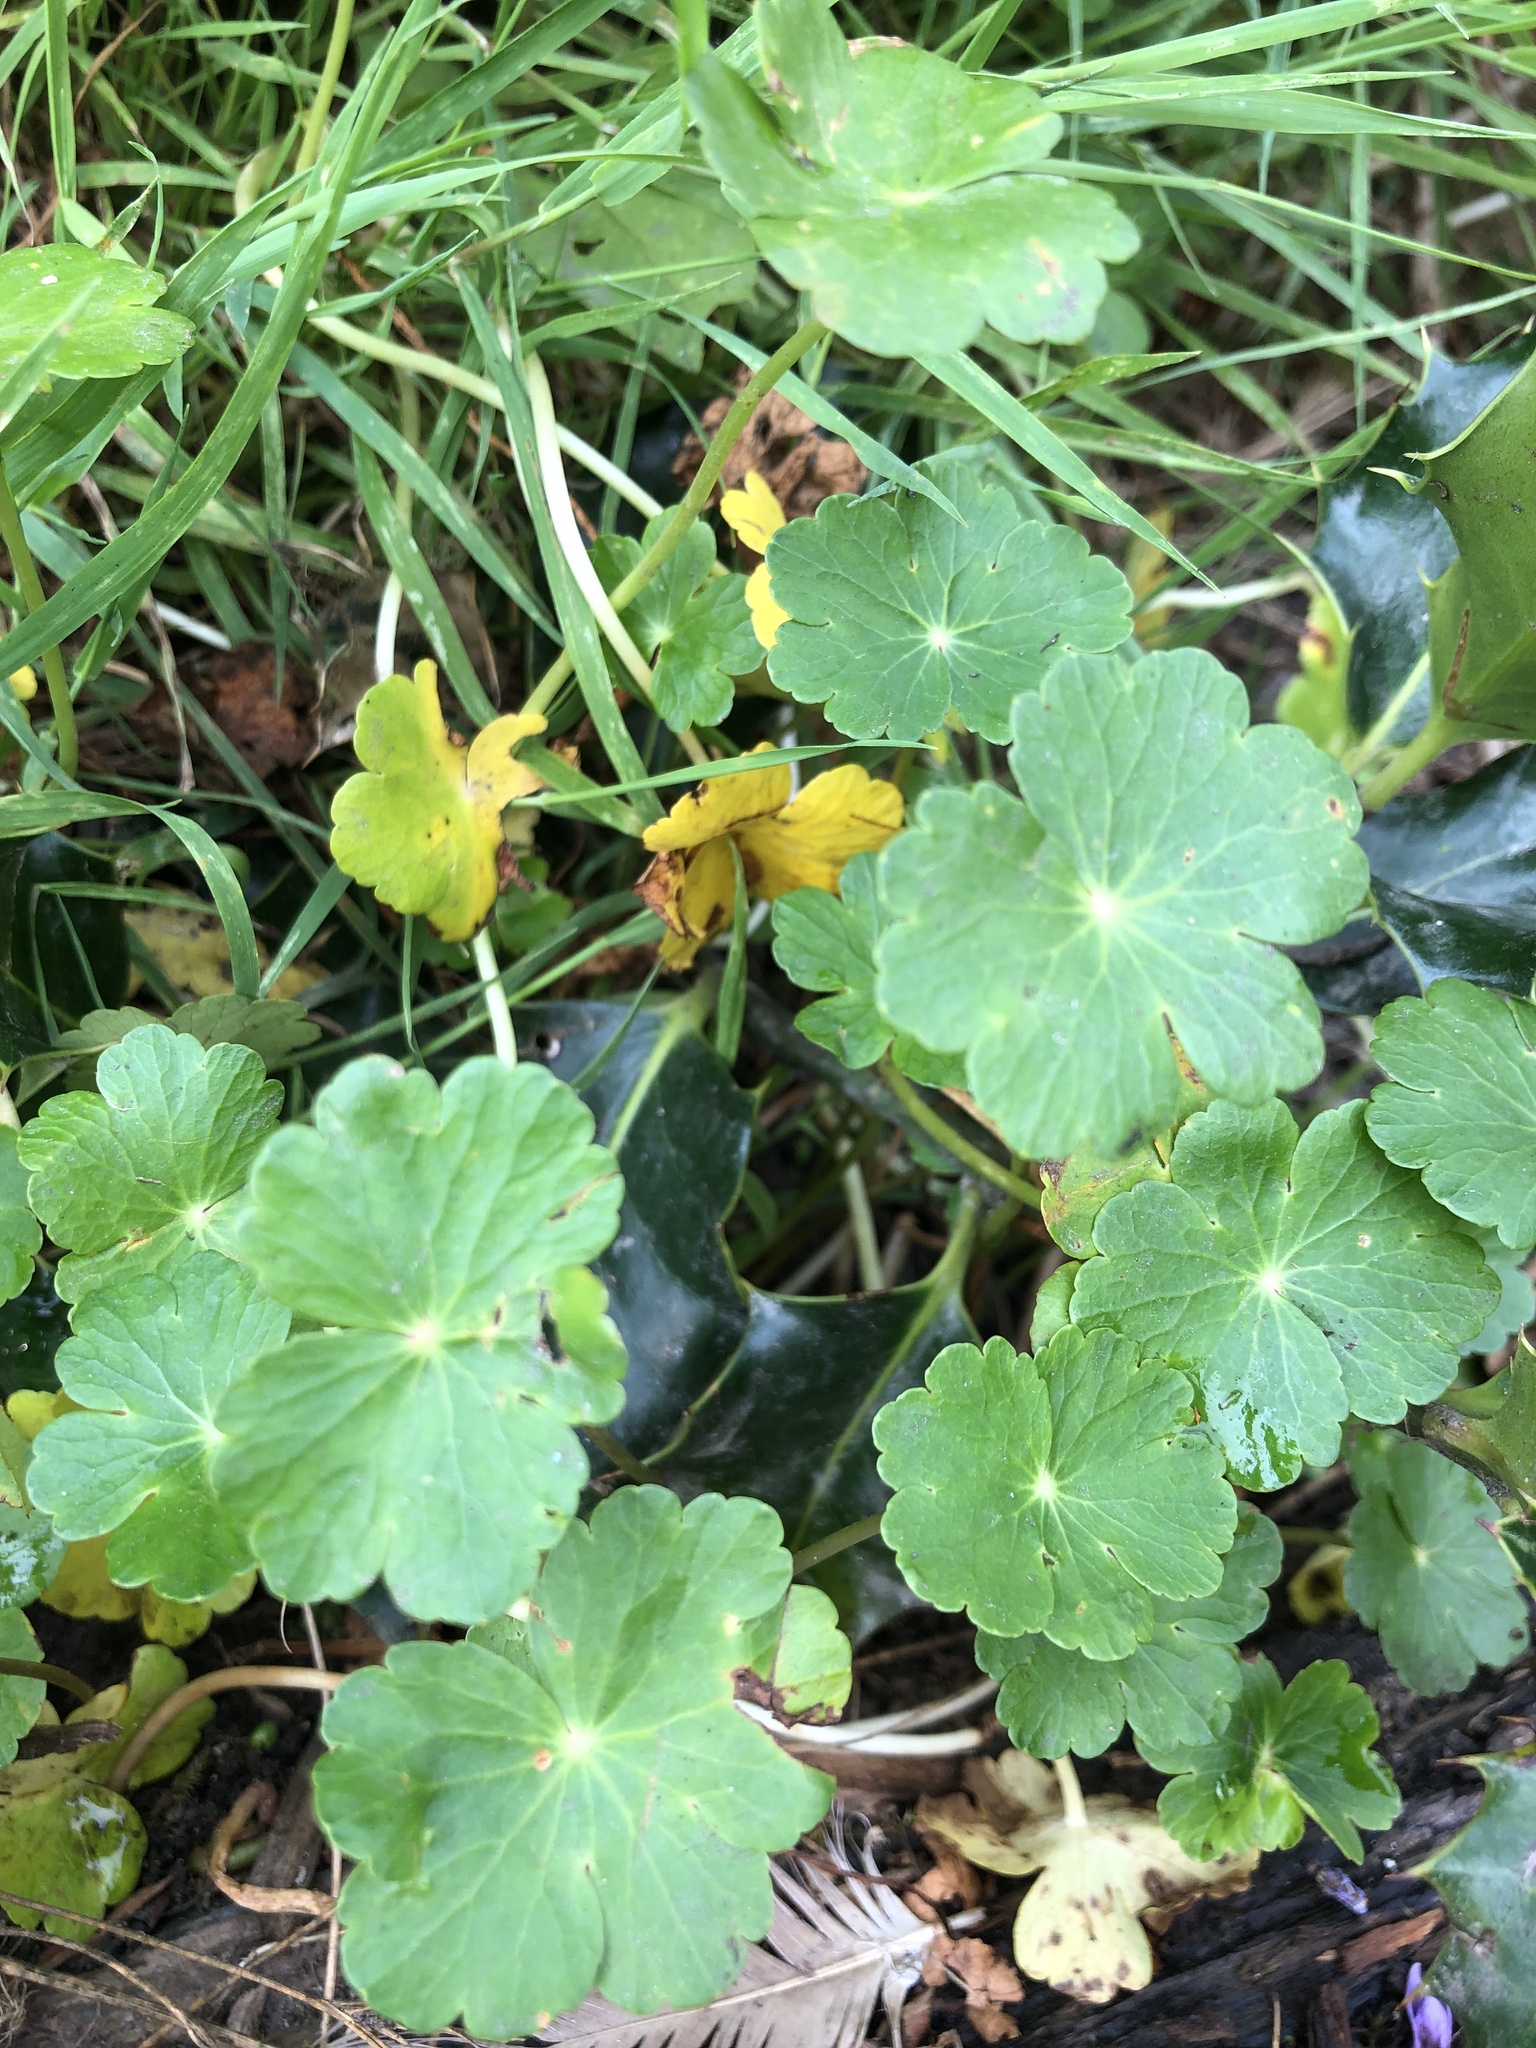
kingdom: Plantae
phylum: Tracheophyta
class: Magnoliopsida
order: Apiales
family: Araliaceae
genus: Hydrocotyle
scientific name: Hydrocotyle ranunculoides
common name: Floating pennywort
